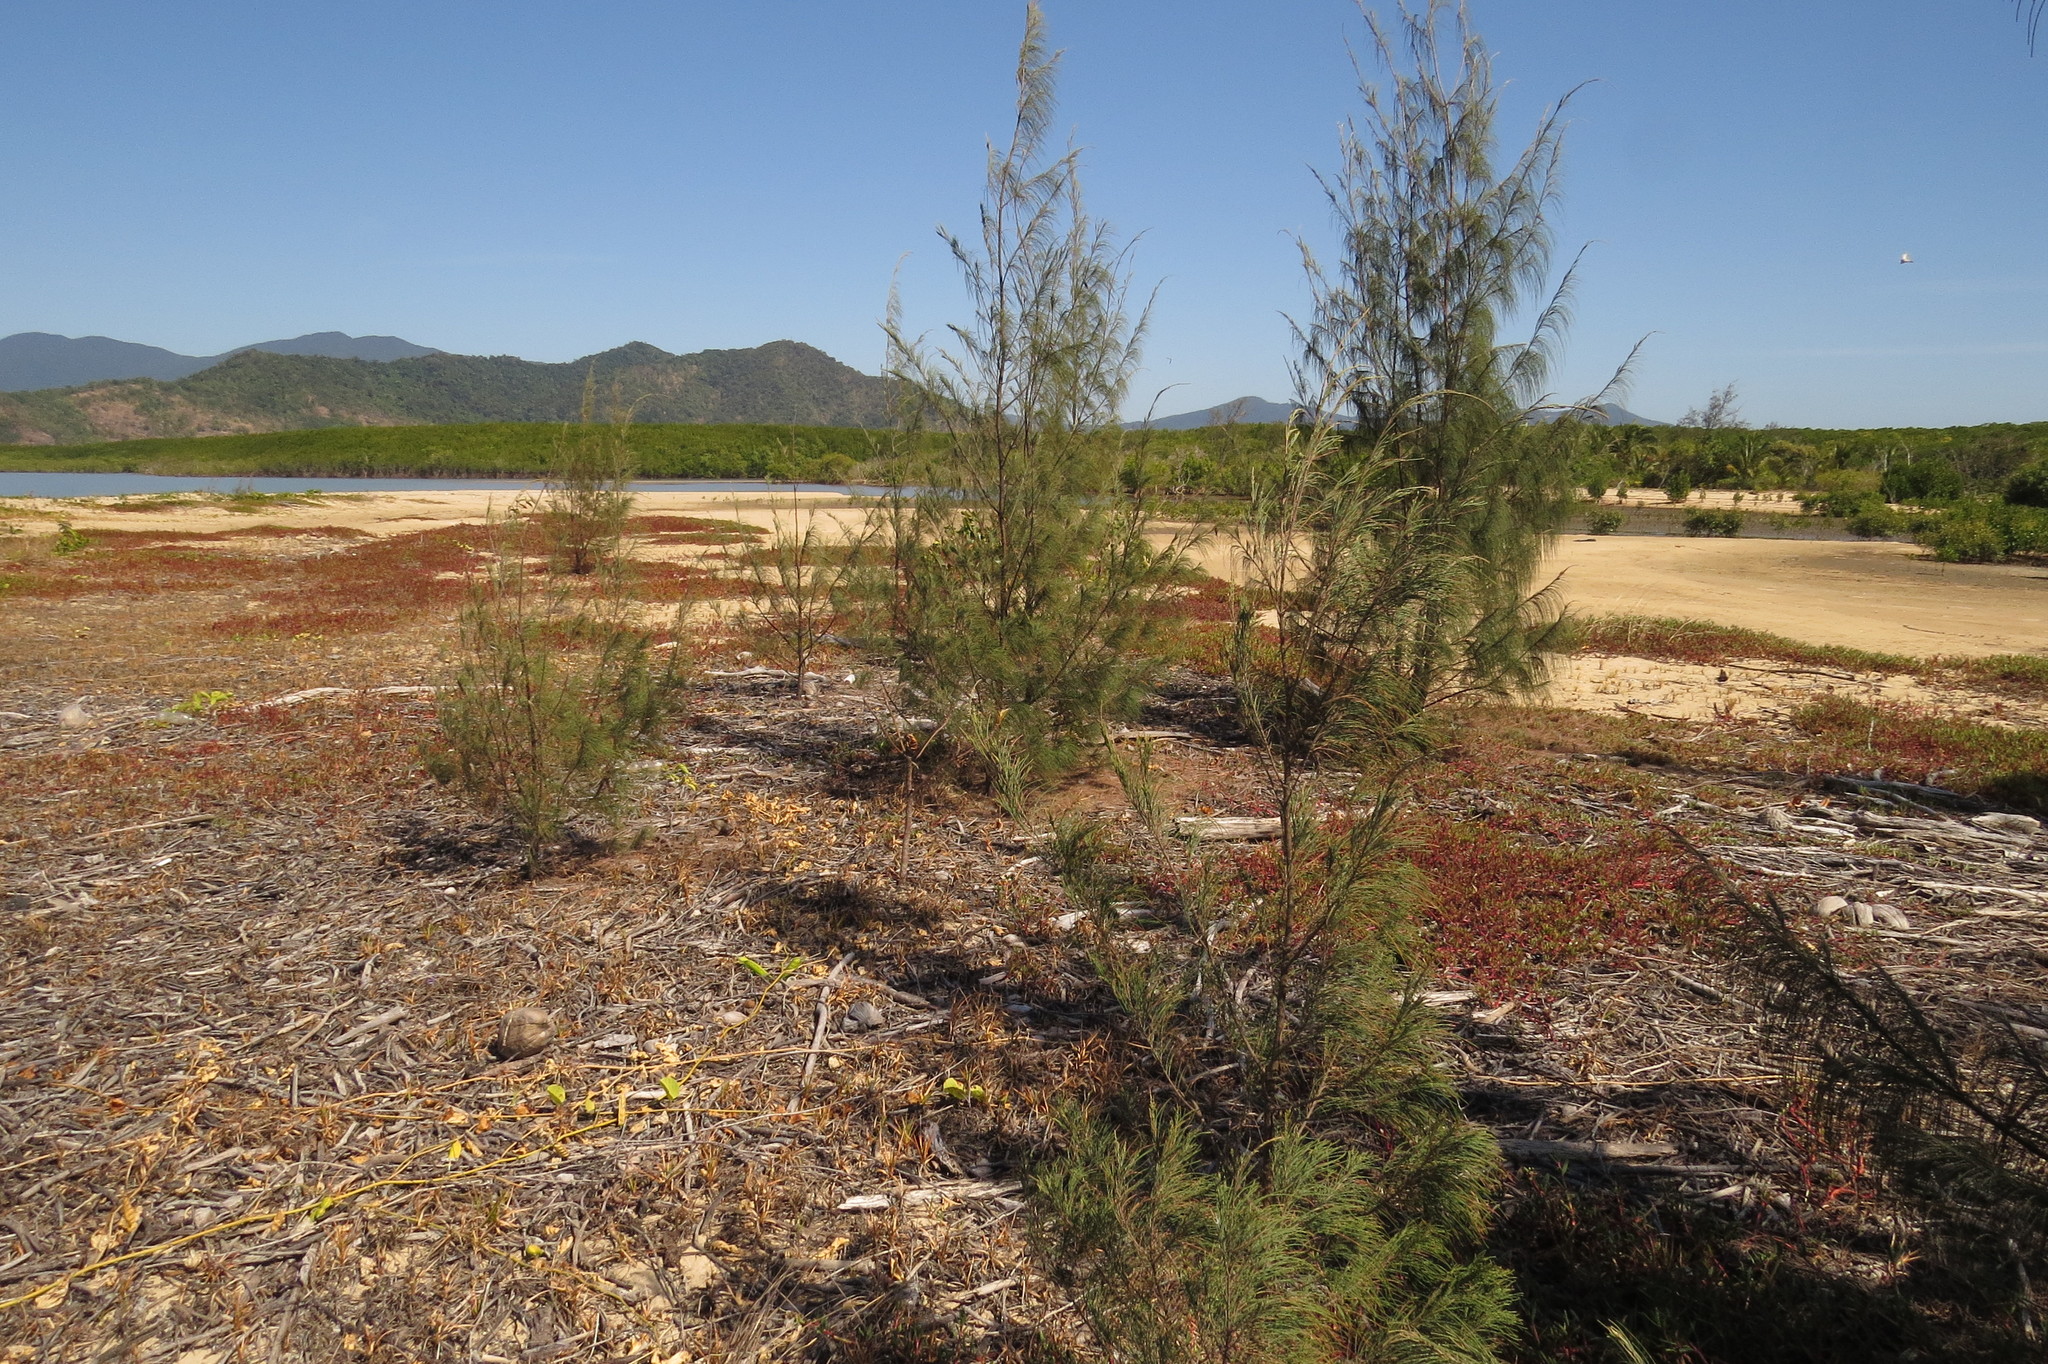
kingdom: Plantae
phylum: Tracheophyta
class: Magnoliopsida
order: Fagales
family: Casuarinaceae
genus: Casuarina
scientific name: Casuarina equisetifolia
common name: Beach sheoak
